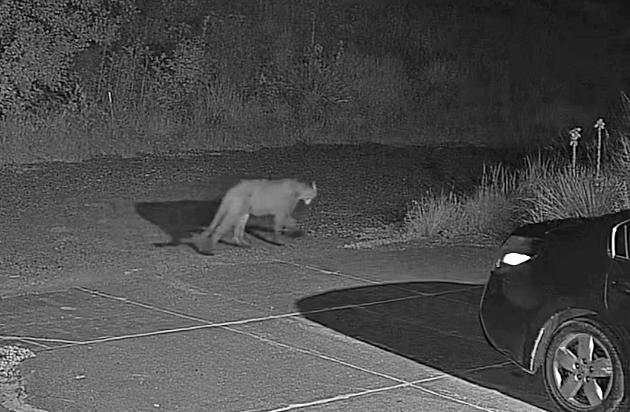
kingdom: Animalia
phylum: Chordata
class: Mammalia
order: Carnivora
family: Felidae
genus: Puma
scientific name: Puma concolor
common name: Puma
